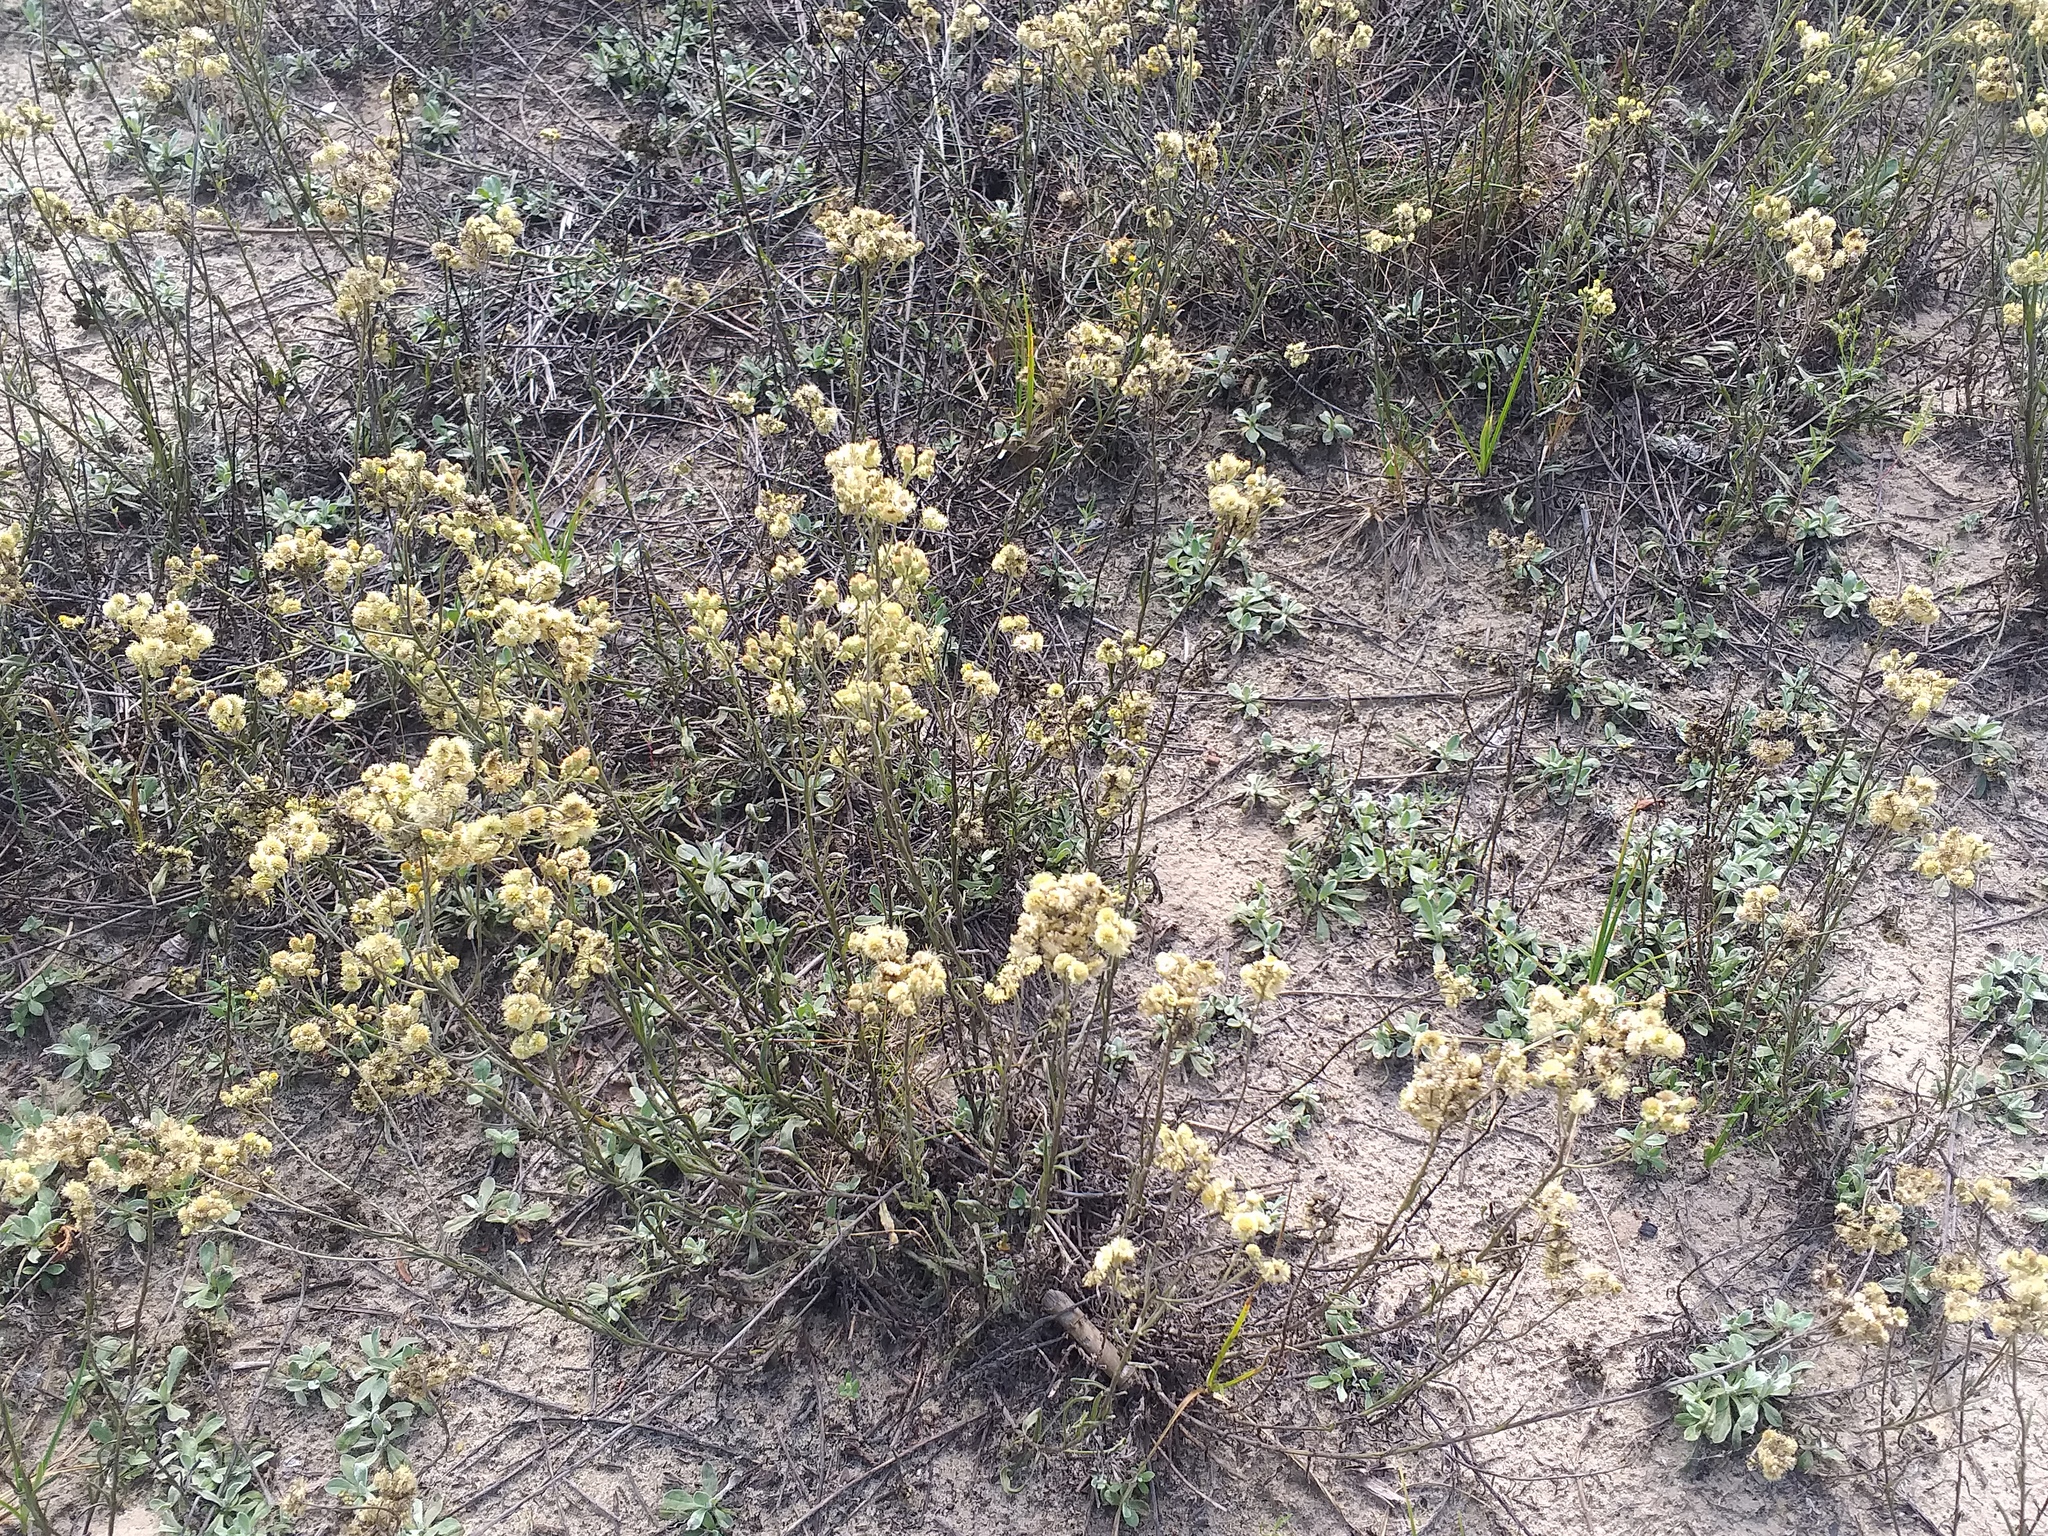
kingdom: Plantae
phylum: Tracheophyta
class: Magnoliopsida
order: Asterales
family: Asteraceae
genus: Helichrysum
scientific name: Helichrysum arenarium
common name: Strawflower
